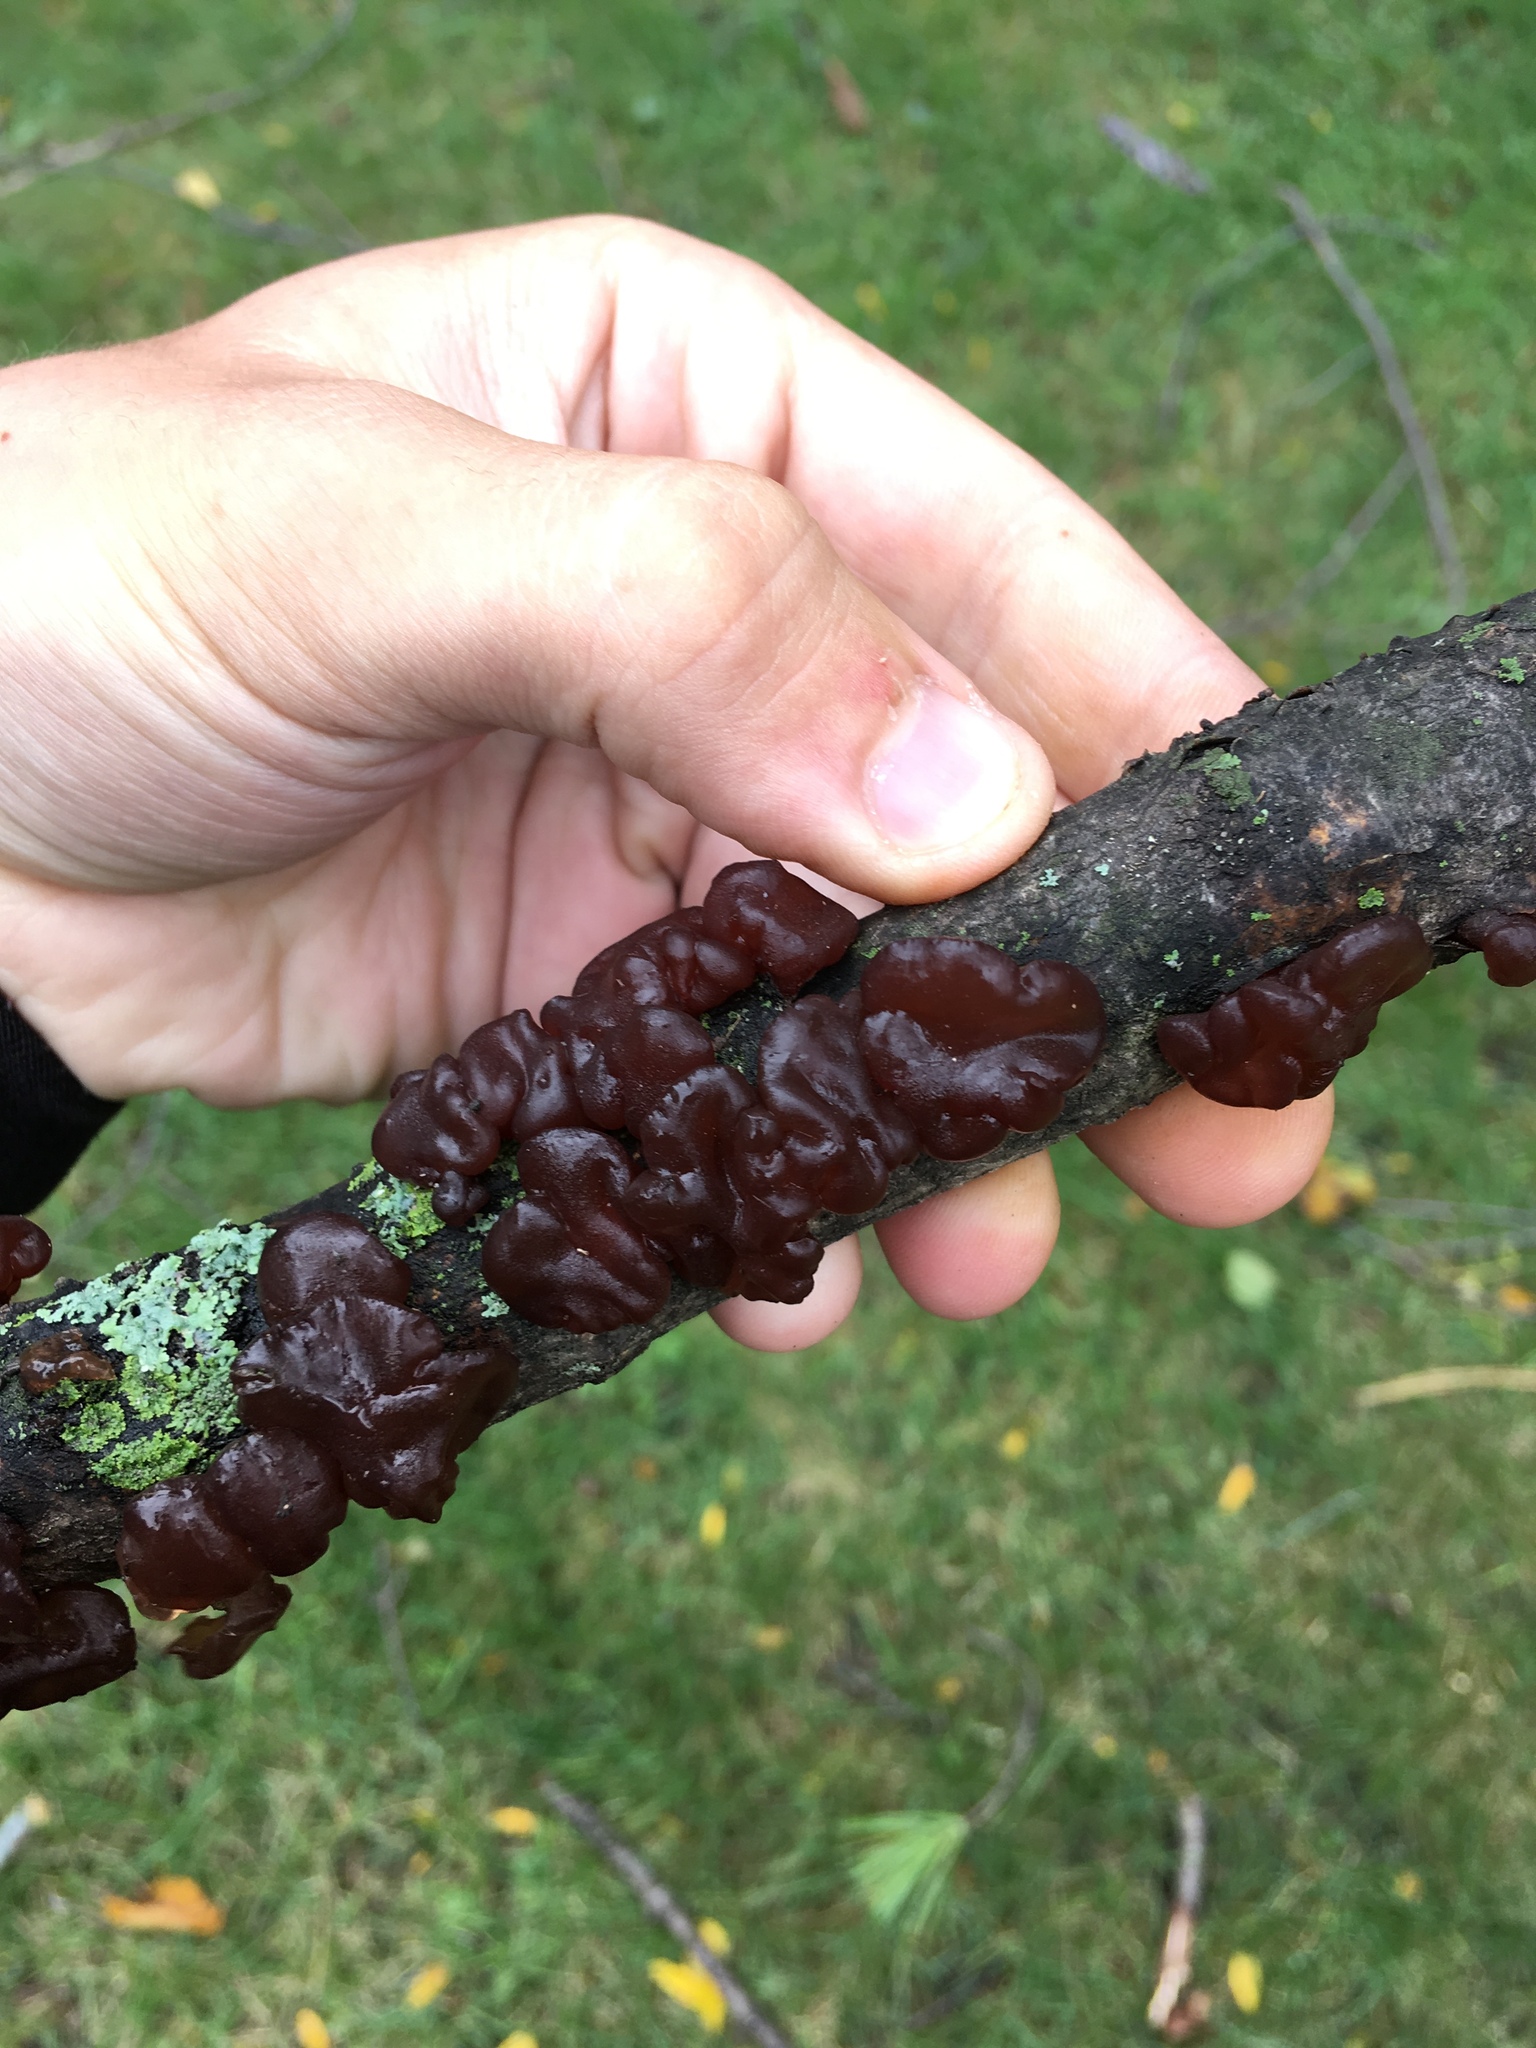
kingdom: Fungi
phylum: Basidiomycota
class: Agaricomycetes
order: Auriculariales
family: Auriculariaceae
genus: Exidia
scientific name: Exidia
